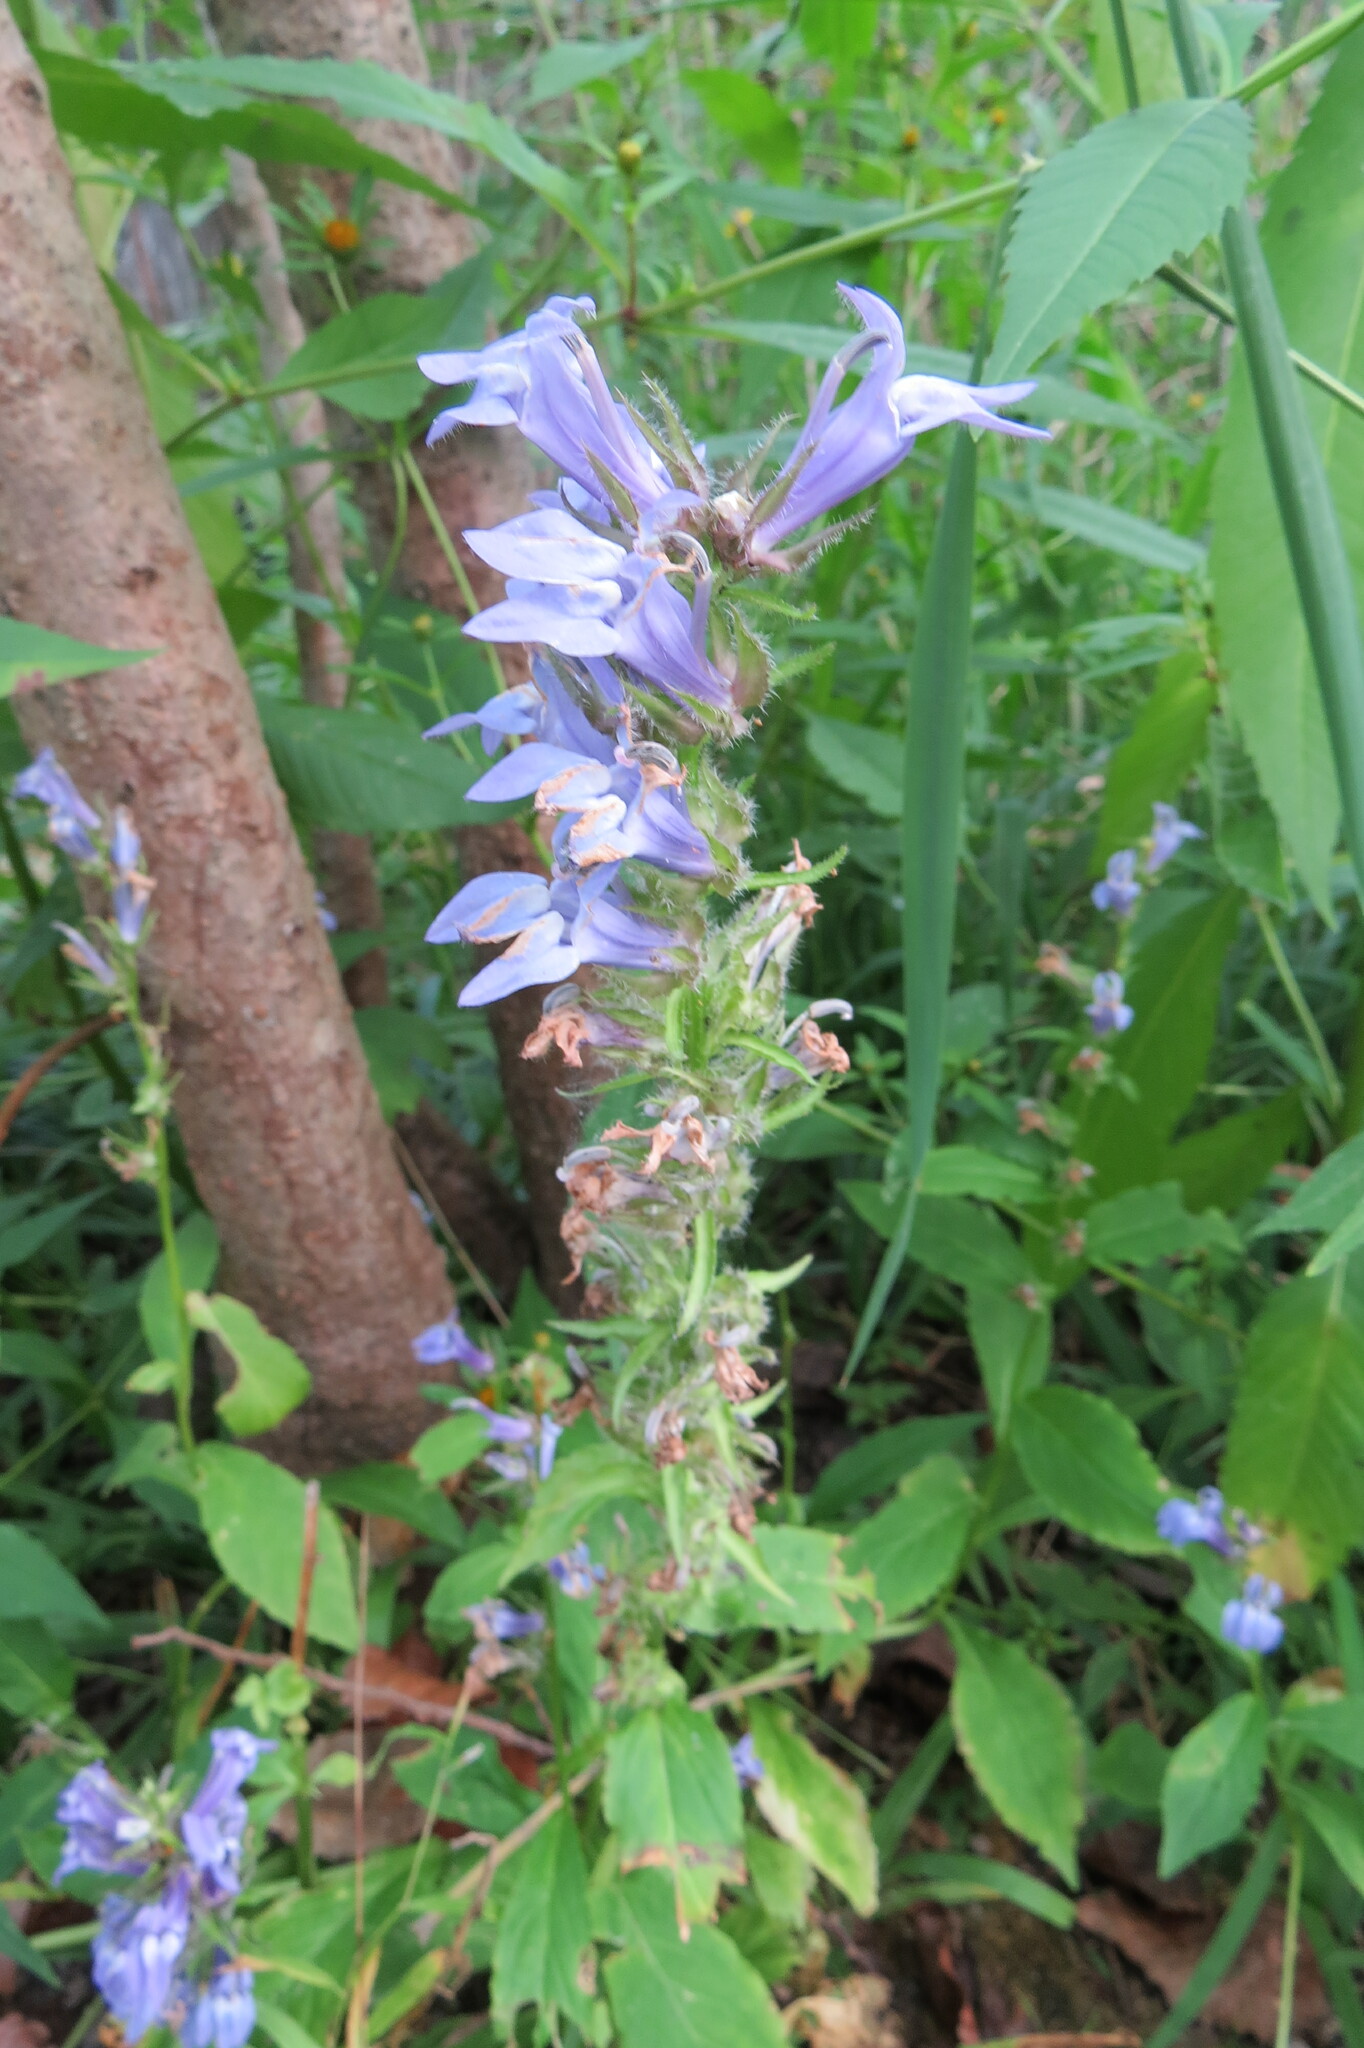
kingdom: Plantae
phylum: Tracheophyta
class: Magnoliopsida
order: Asterales
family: Campanulaceae
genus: Lobelia
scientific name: Lobelia siphilitica
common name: Great lobelia
